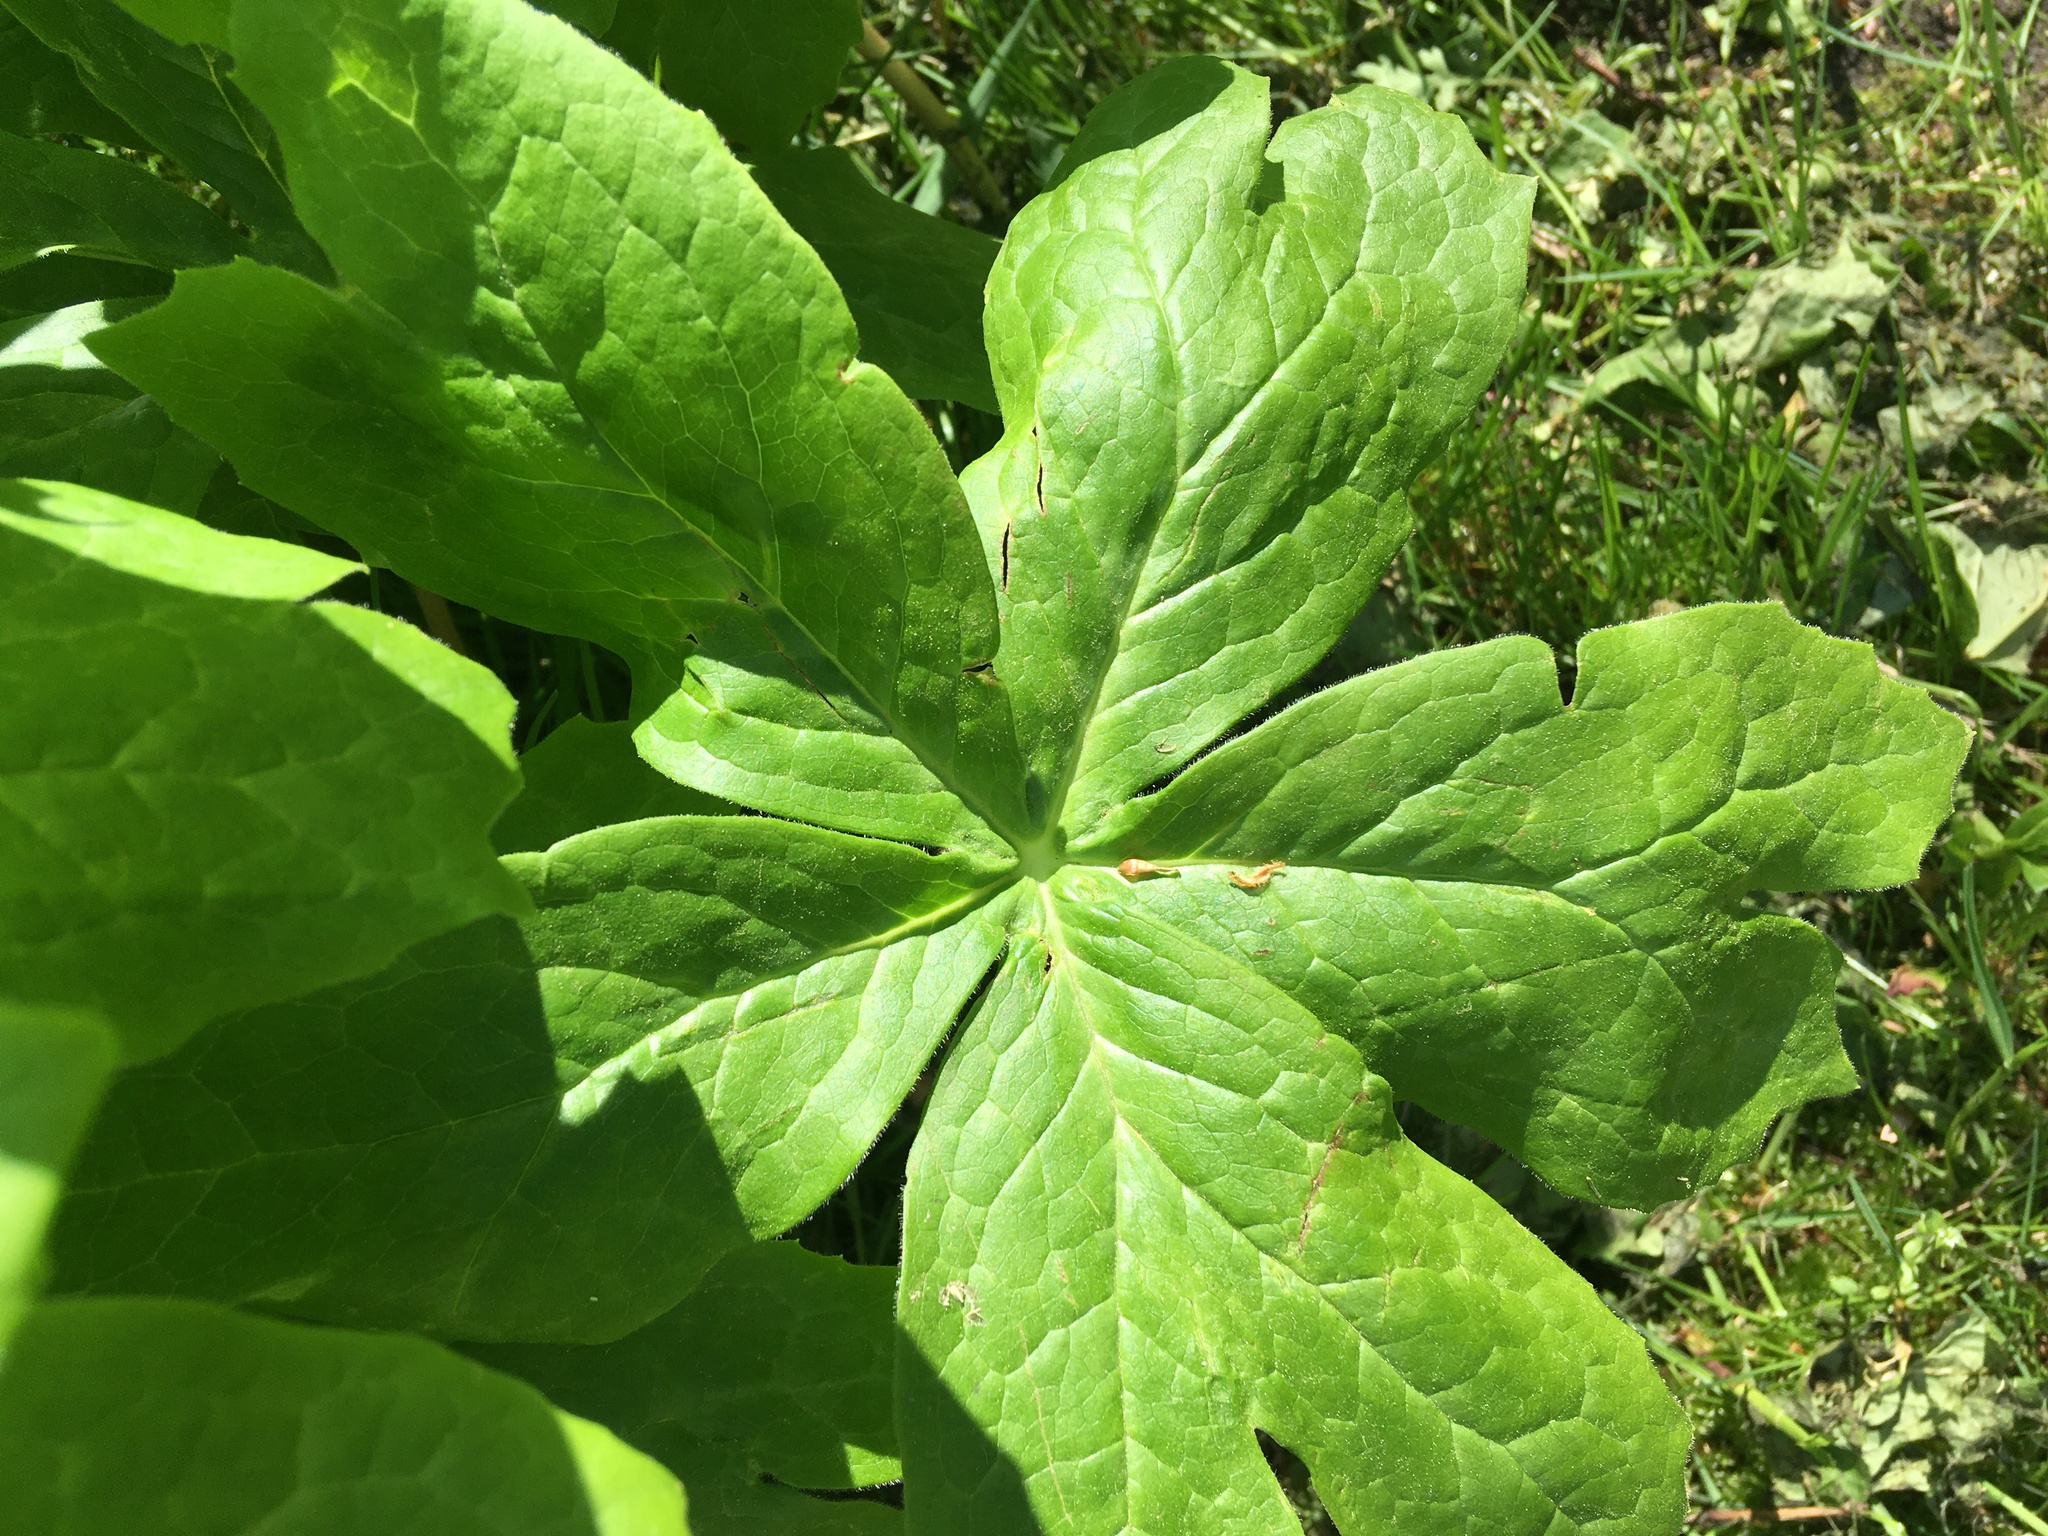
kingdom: Plantae
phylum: Tracheophyta
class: Magnoliopsida
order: Ranunculales
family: Berberidaceae
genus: Podophyllum
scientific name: Podophyllum peltatum
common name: Wild mandrake
